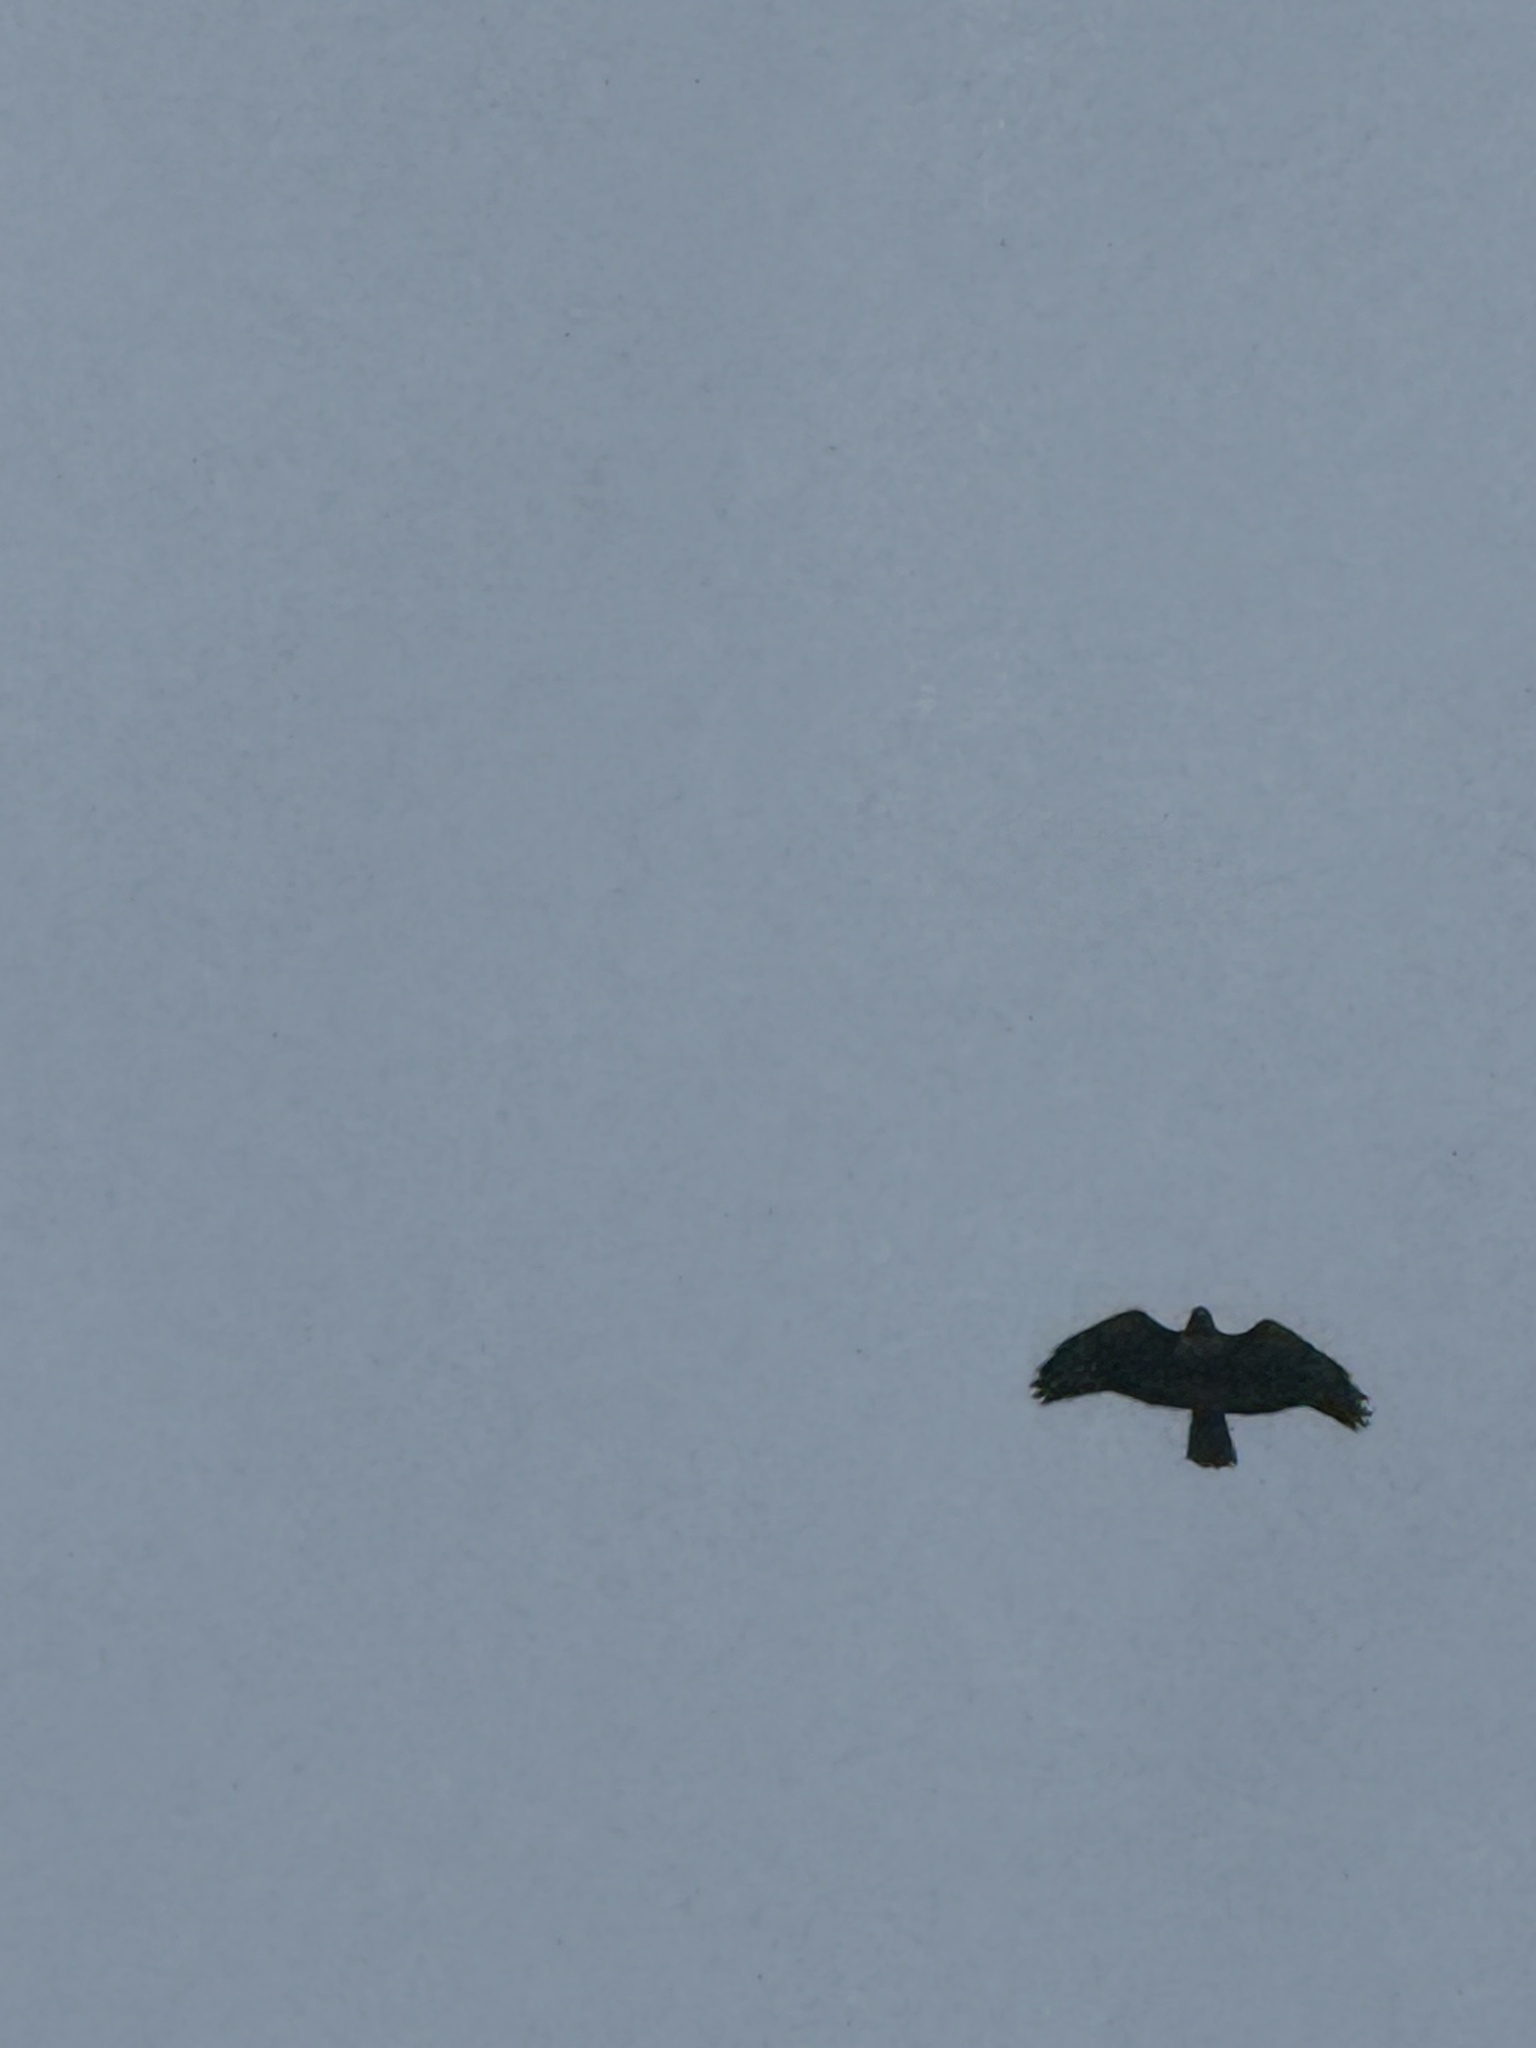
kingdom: Animalia
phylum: Chordata
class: Aves
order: Accipitriformes
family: Accipitridae
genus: Buteo
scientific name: Buteo jamaicensis
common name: Red-tailed hawk
